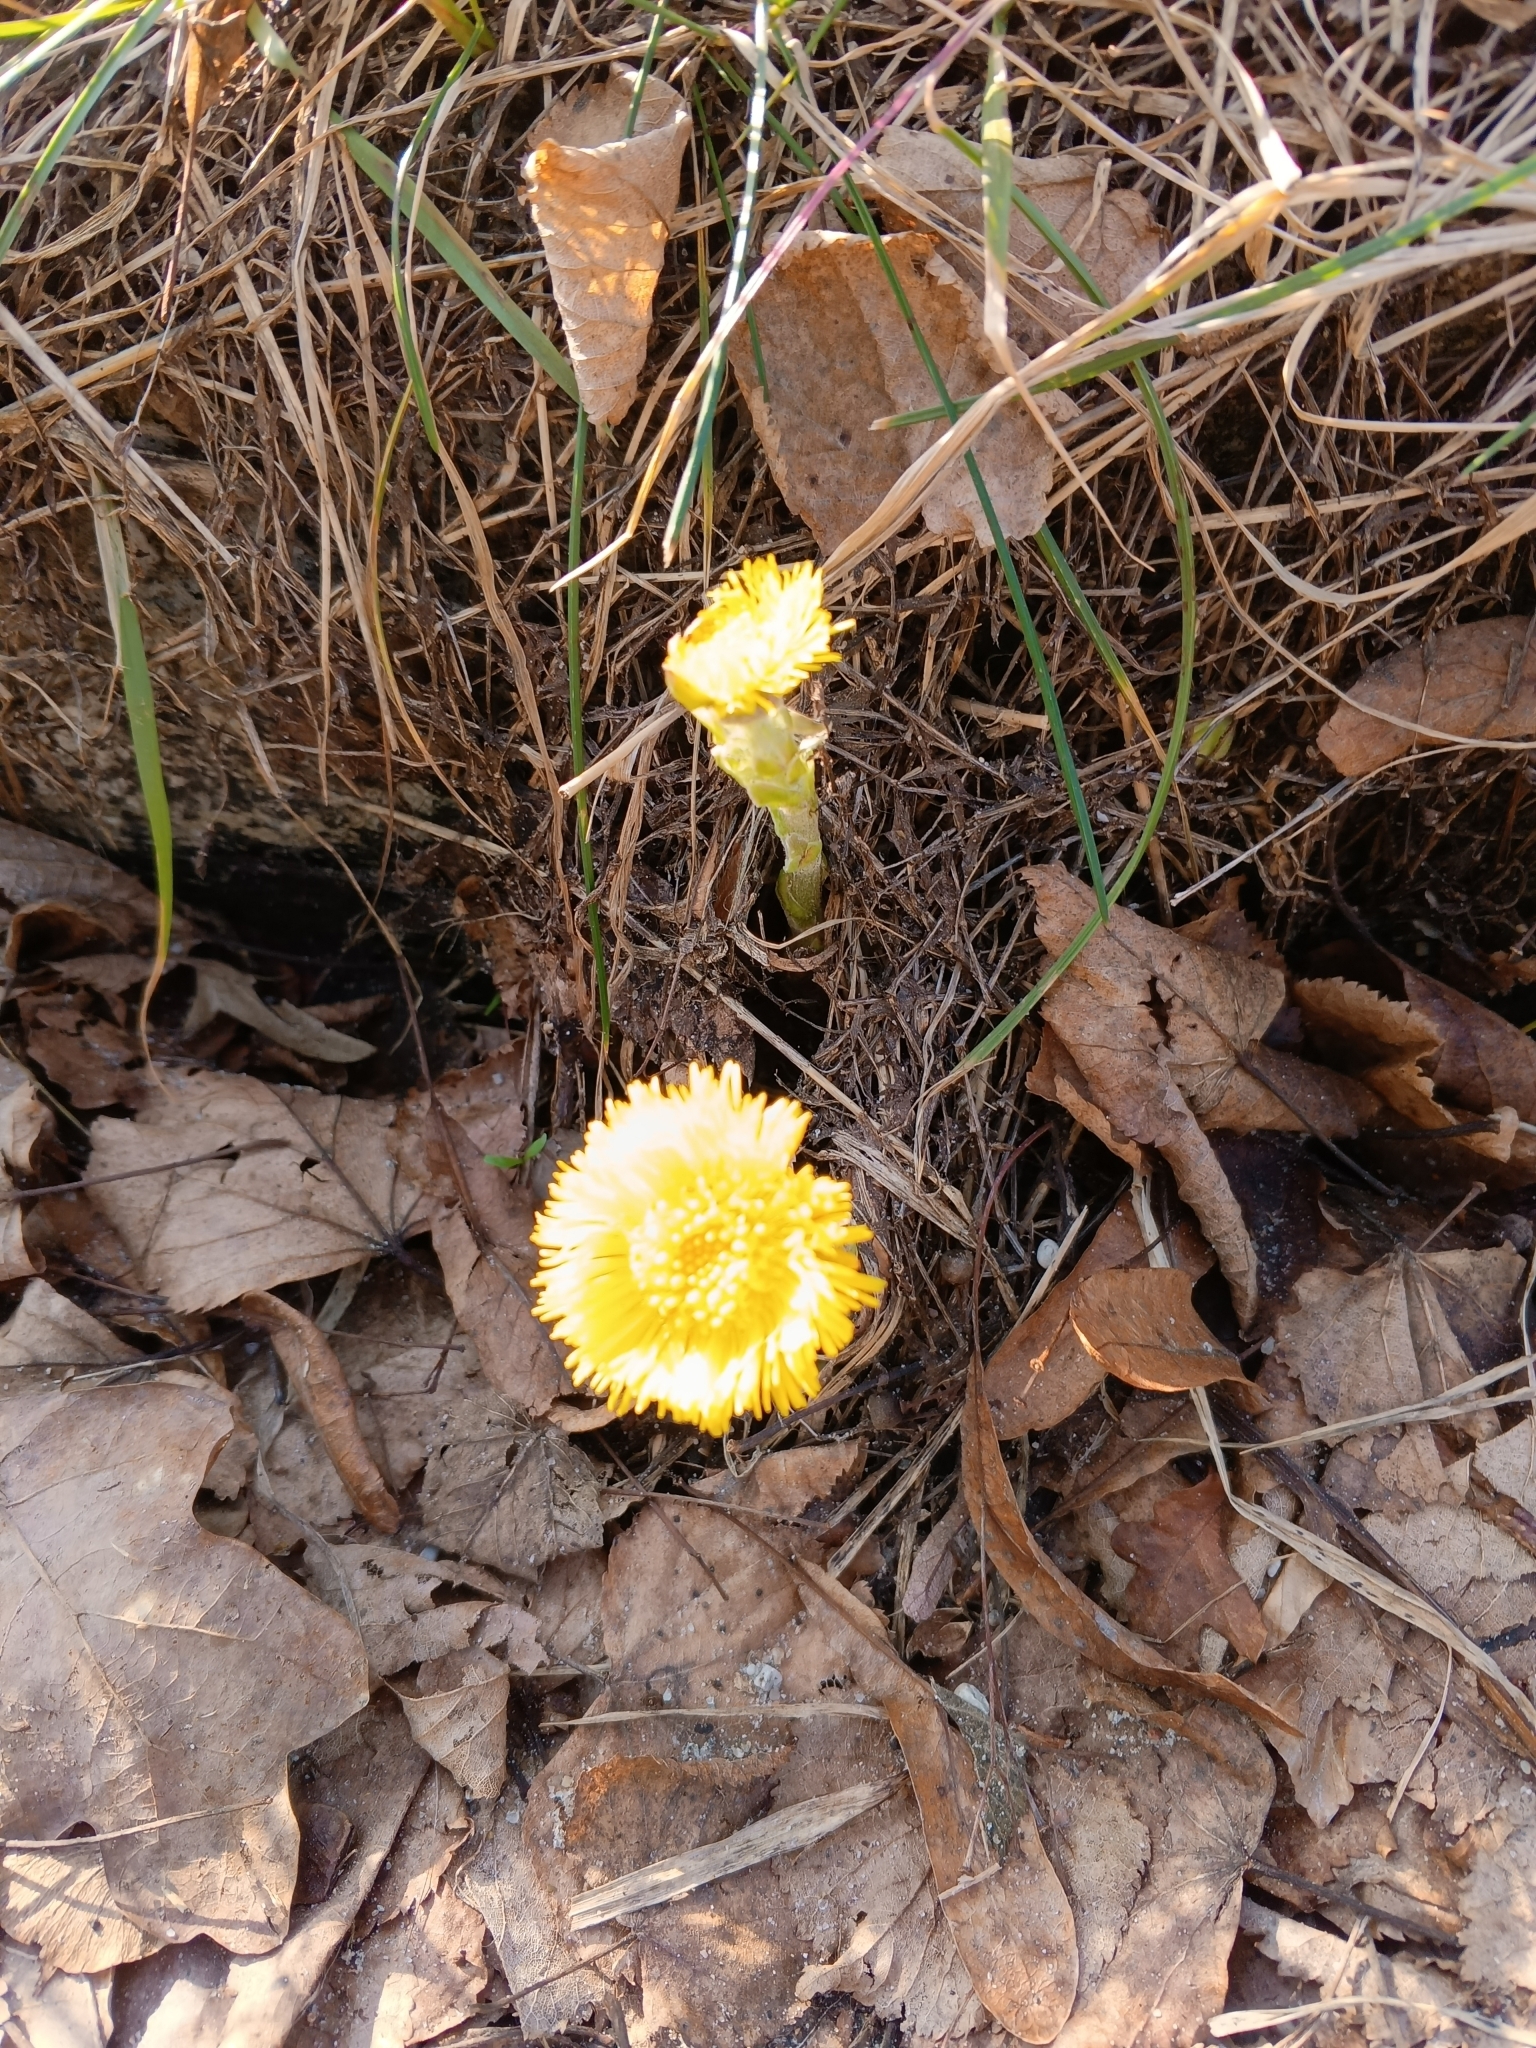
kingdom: Plantae
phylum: Tracheophyta
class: Magnoliopsida
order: Asterales
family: Asteraceae
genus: Tussilago
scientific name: Tussilago farfara
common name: Coltsfoot
